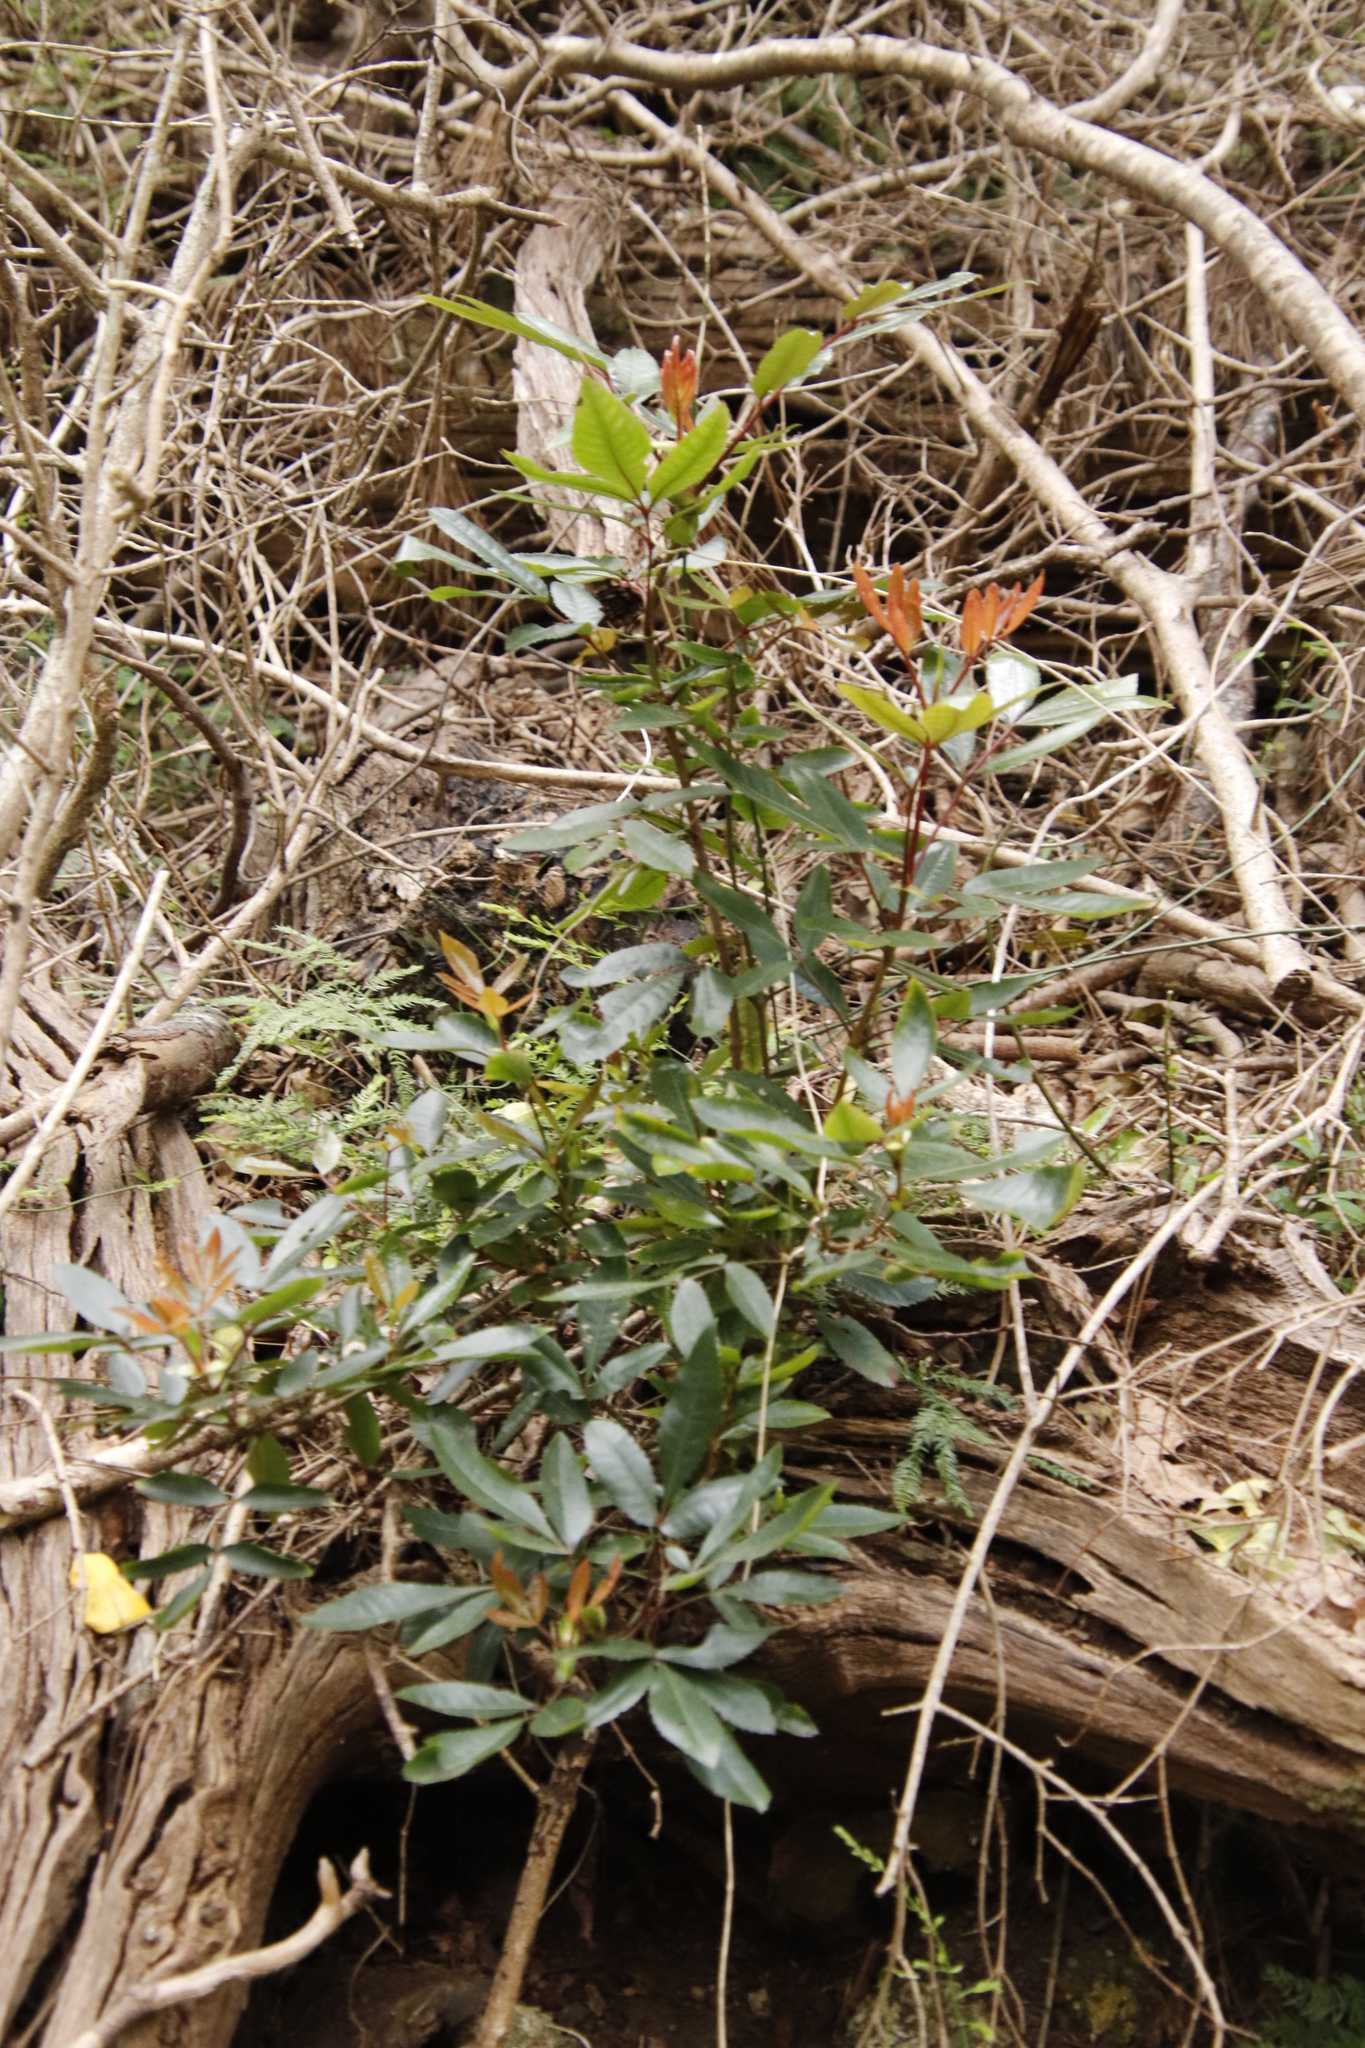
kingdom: Plantae
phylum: Tracheophyta
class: Magnoliopsida
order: Oxalidales
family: Cunoniaceae
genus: Cunonia
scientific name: Cunonia capensis
